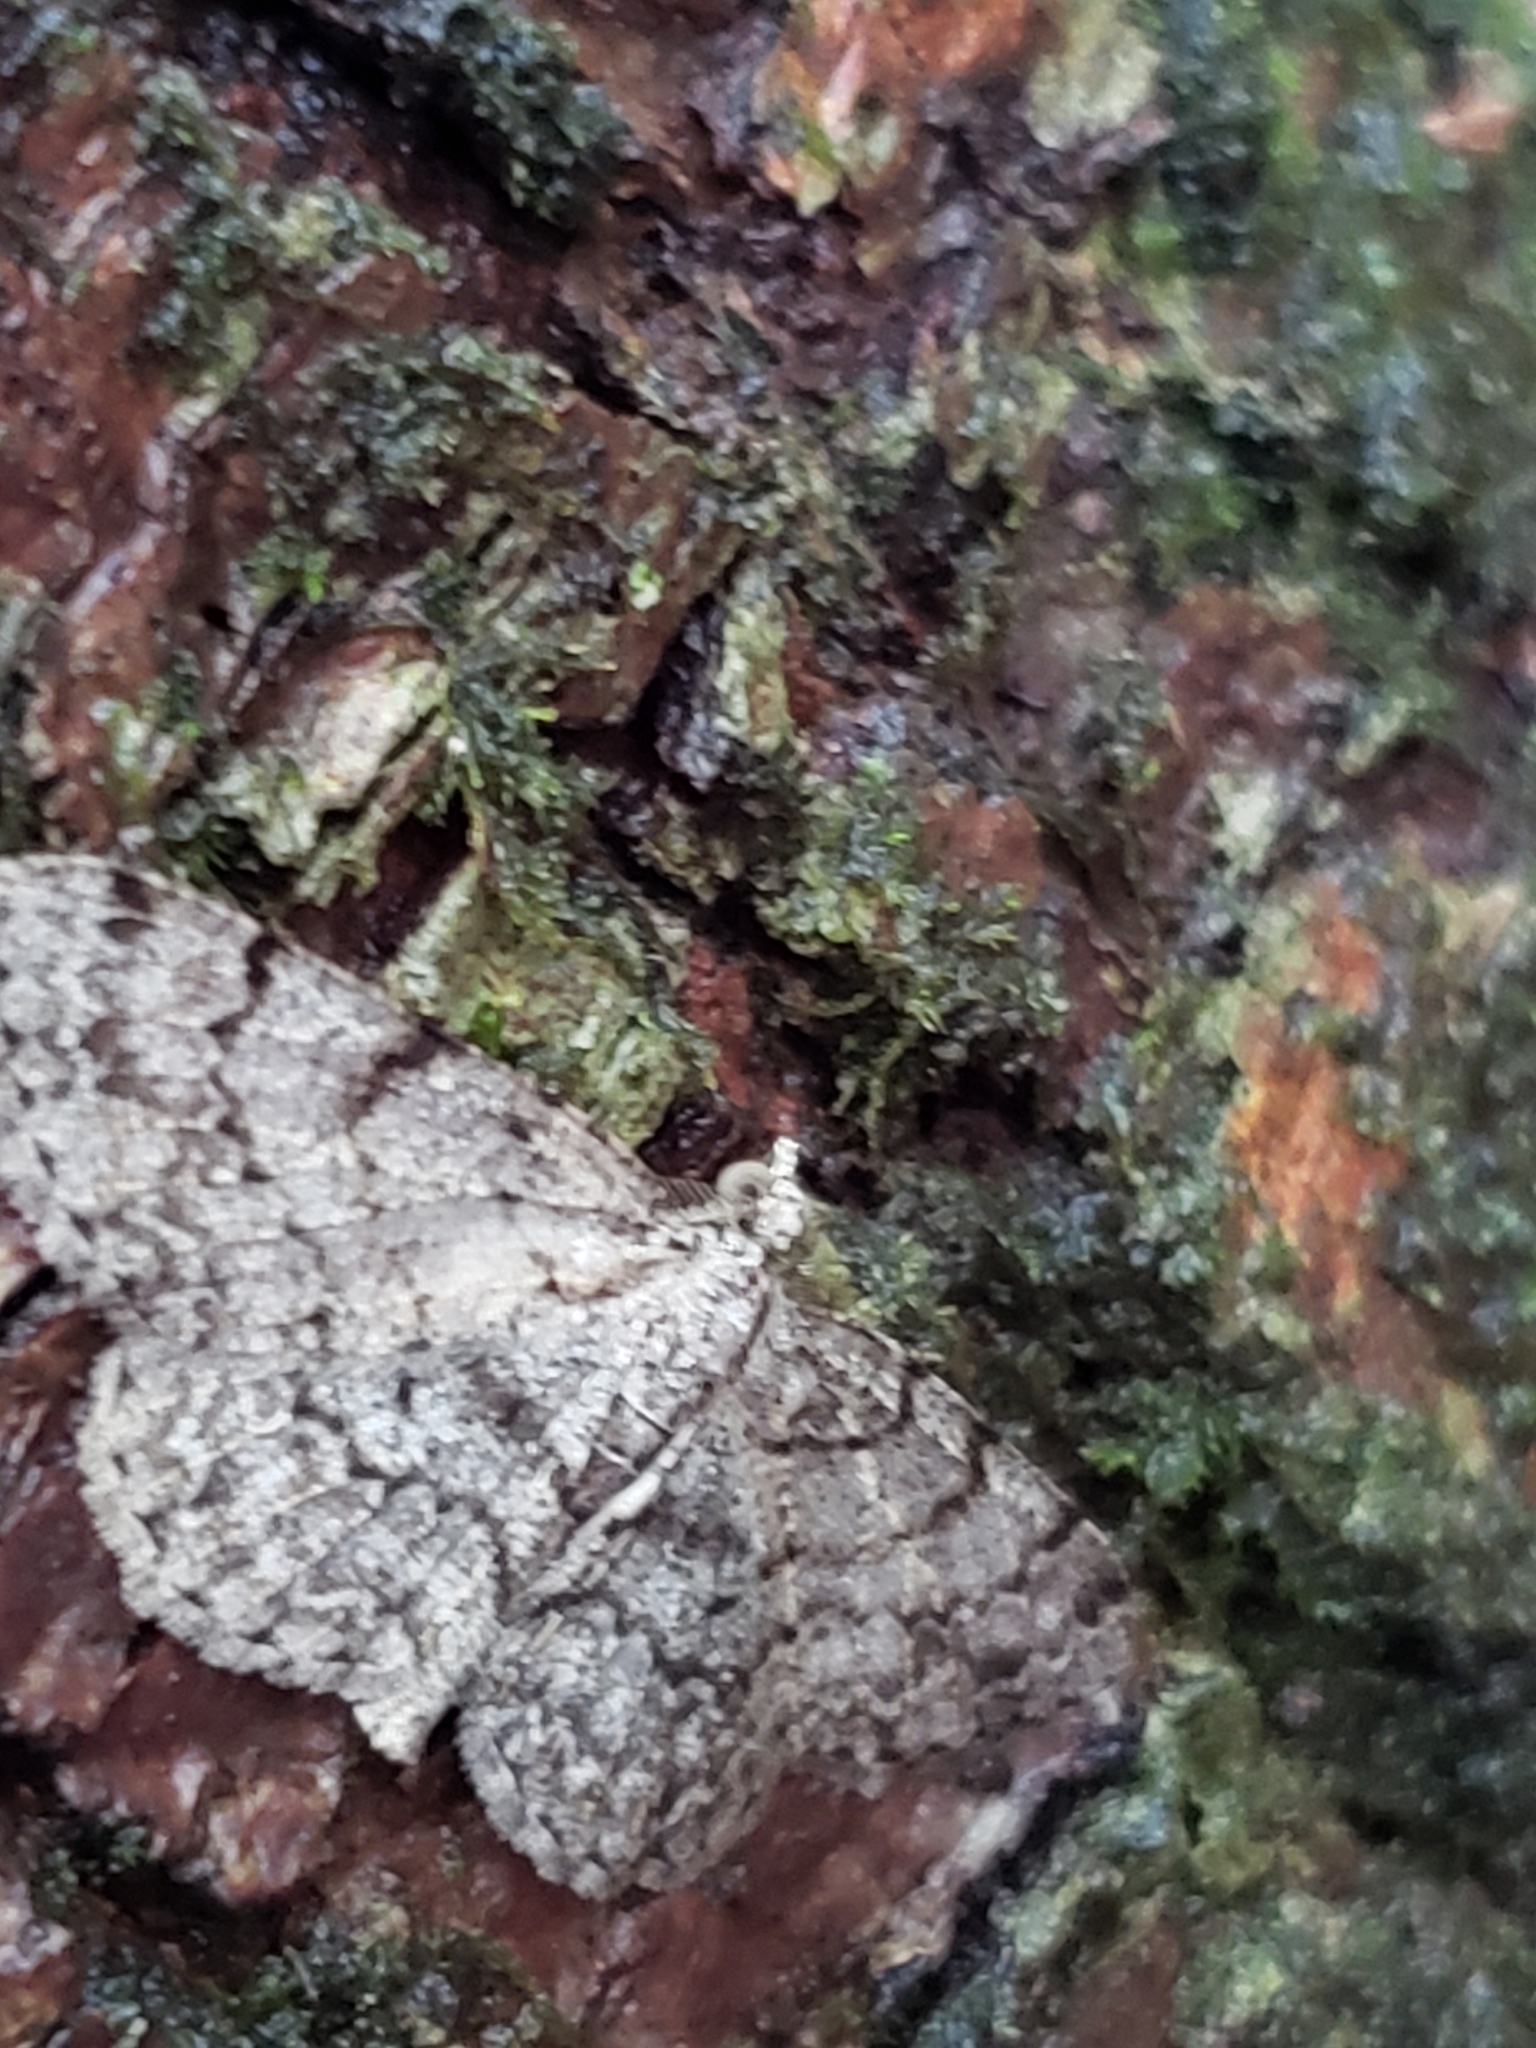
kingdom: Animalia
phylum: Arthropoda
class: Insecta
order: Lepidoptera
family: Geometridae
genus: Protoboarmia
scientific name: Protoboarmia porcelaria
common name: Porcelain gray
